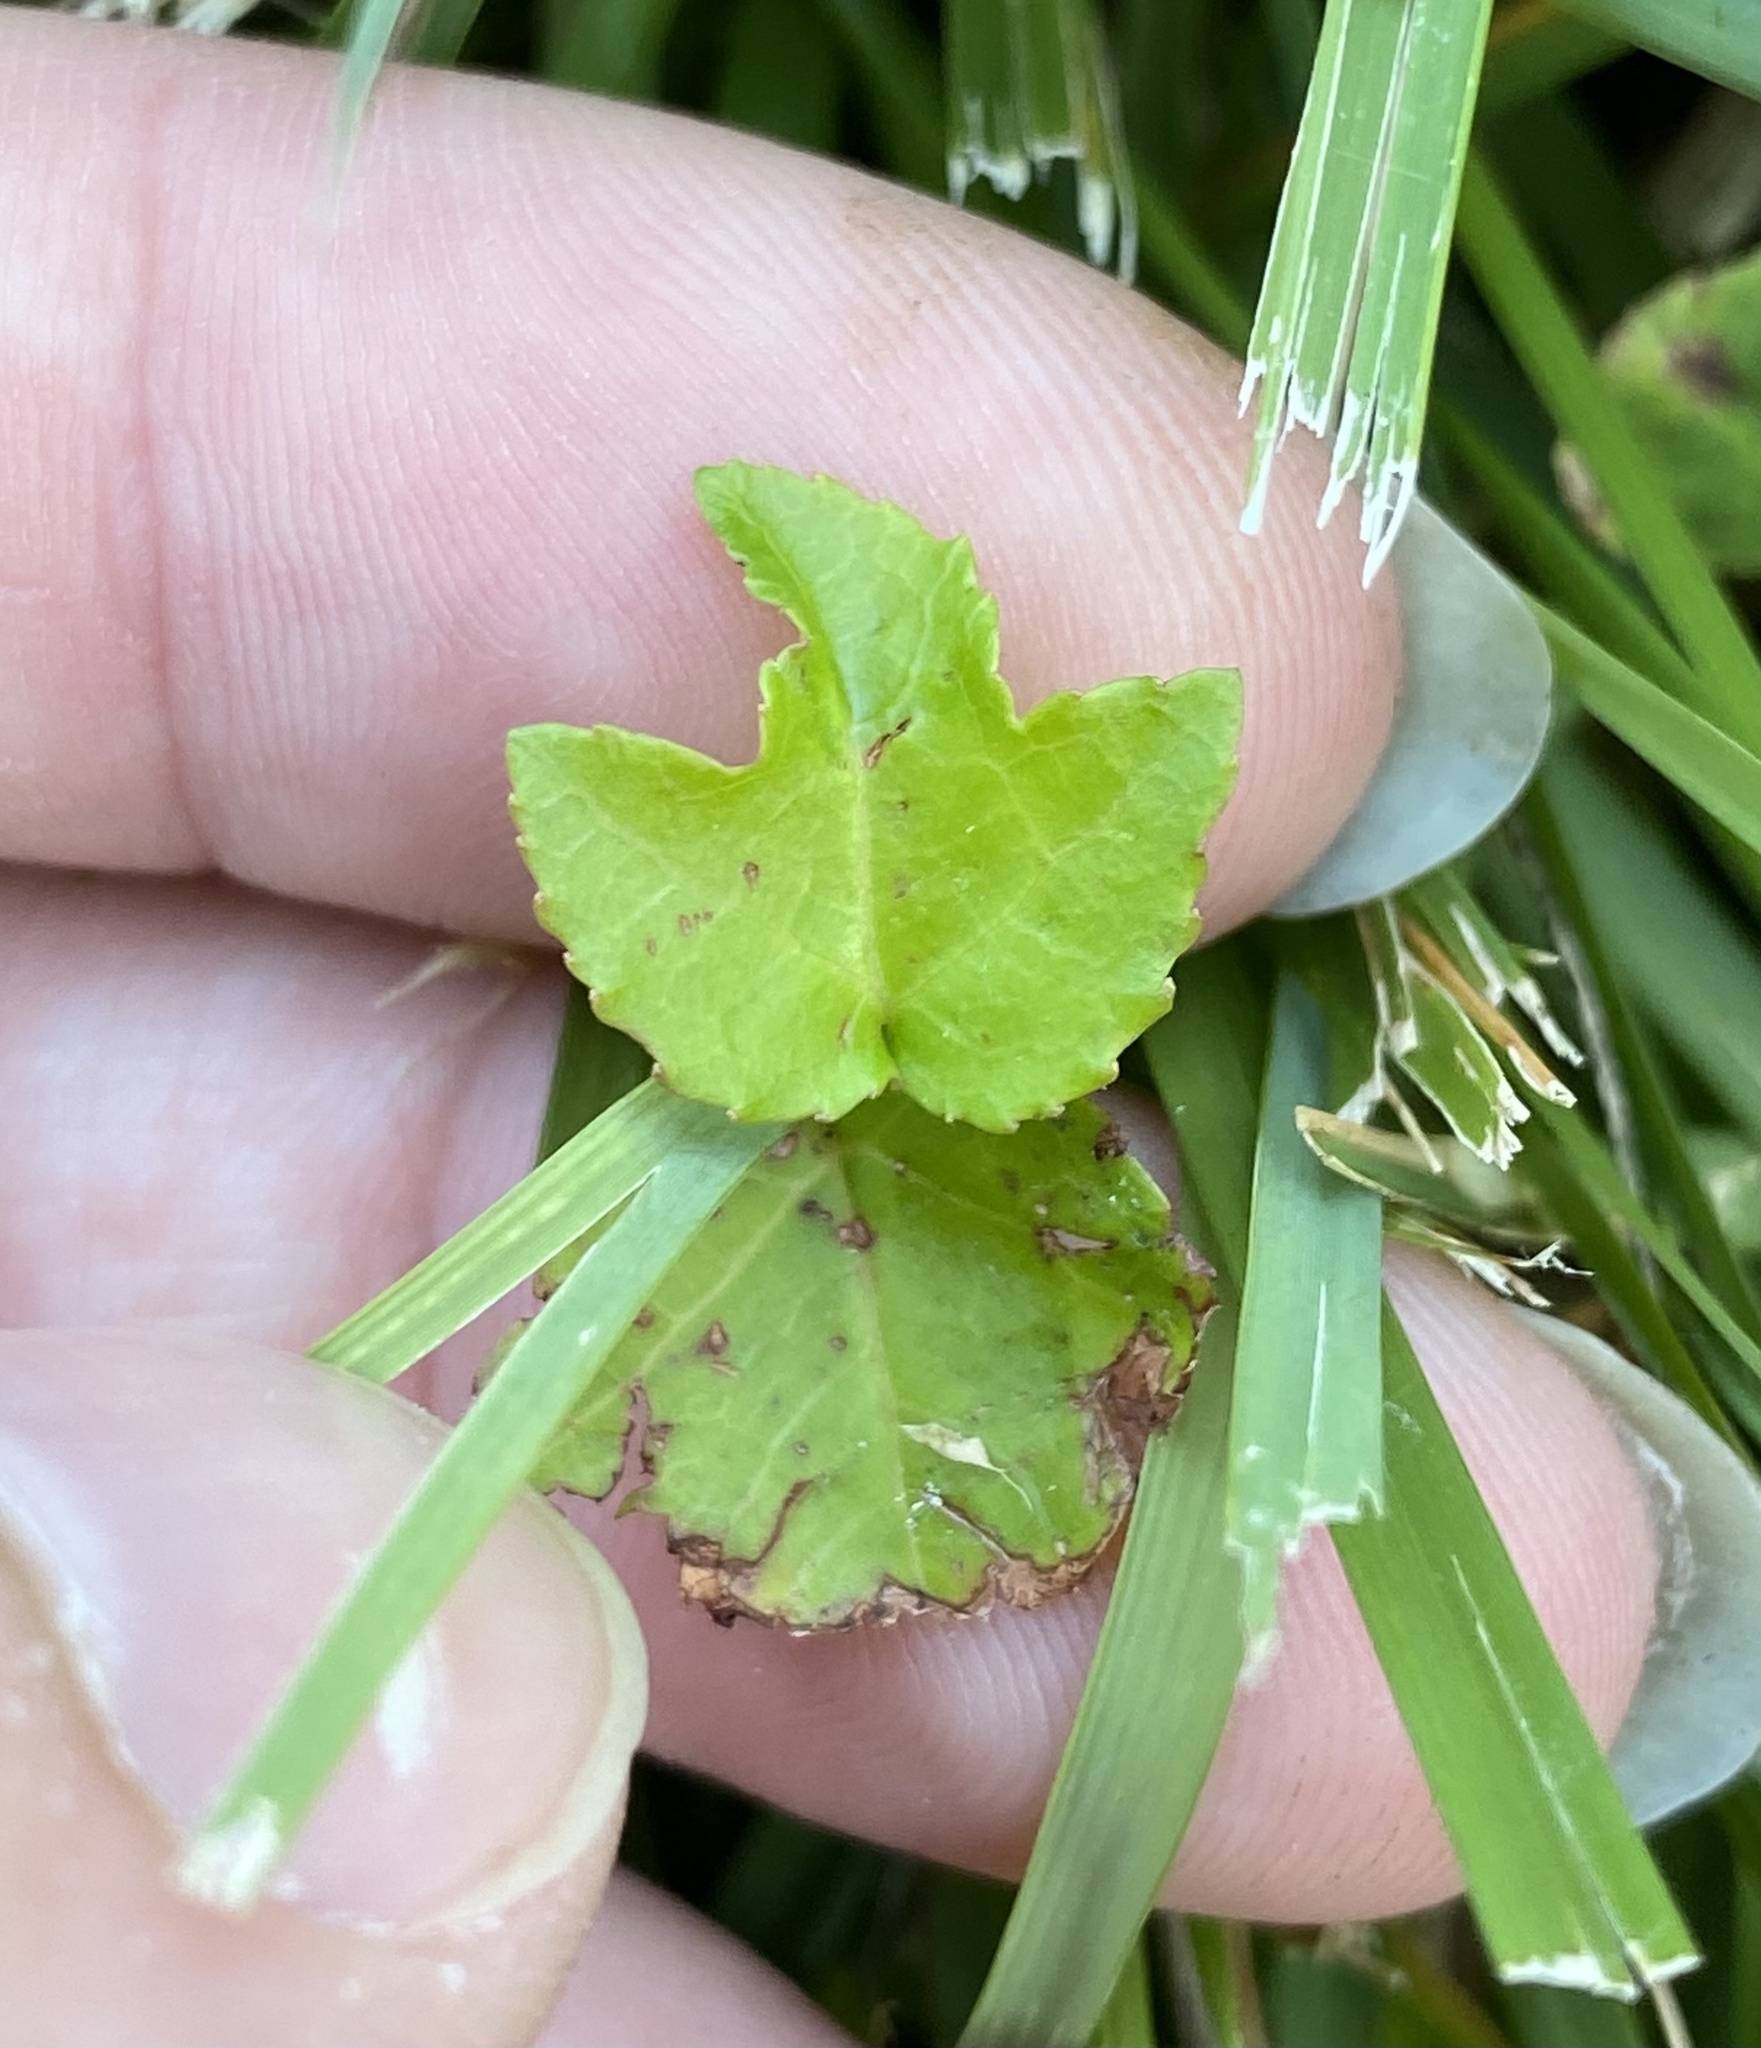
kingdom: Plantae
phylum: Tracheophyta
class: Magnoliopsida
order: Saxifragales
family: Altingiaceae
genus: Liquidambar
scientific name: Liquidambar styraciflua
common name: Sweet gum
